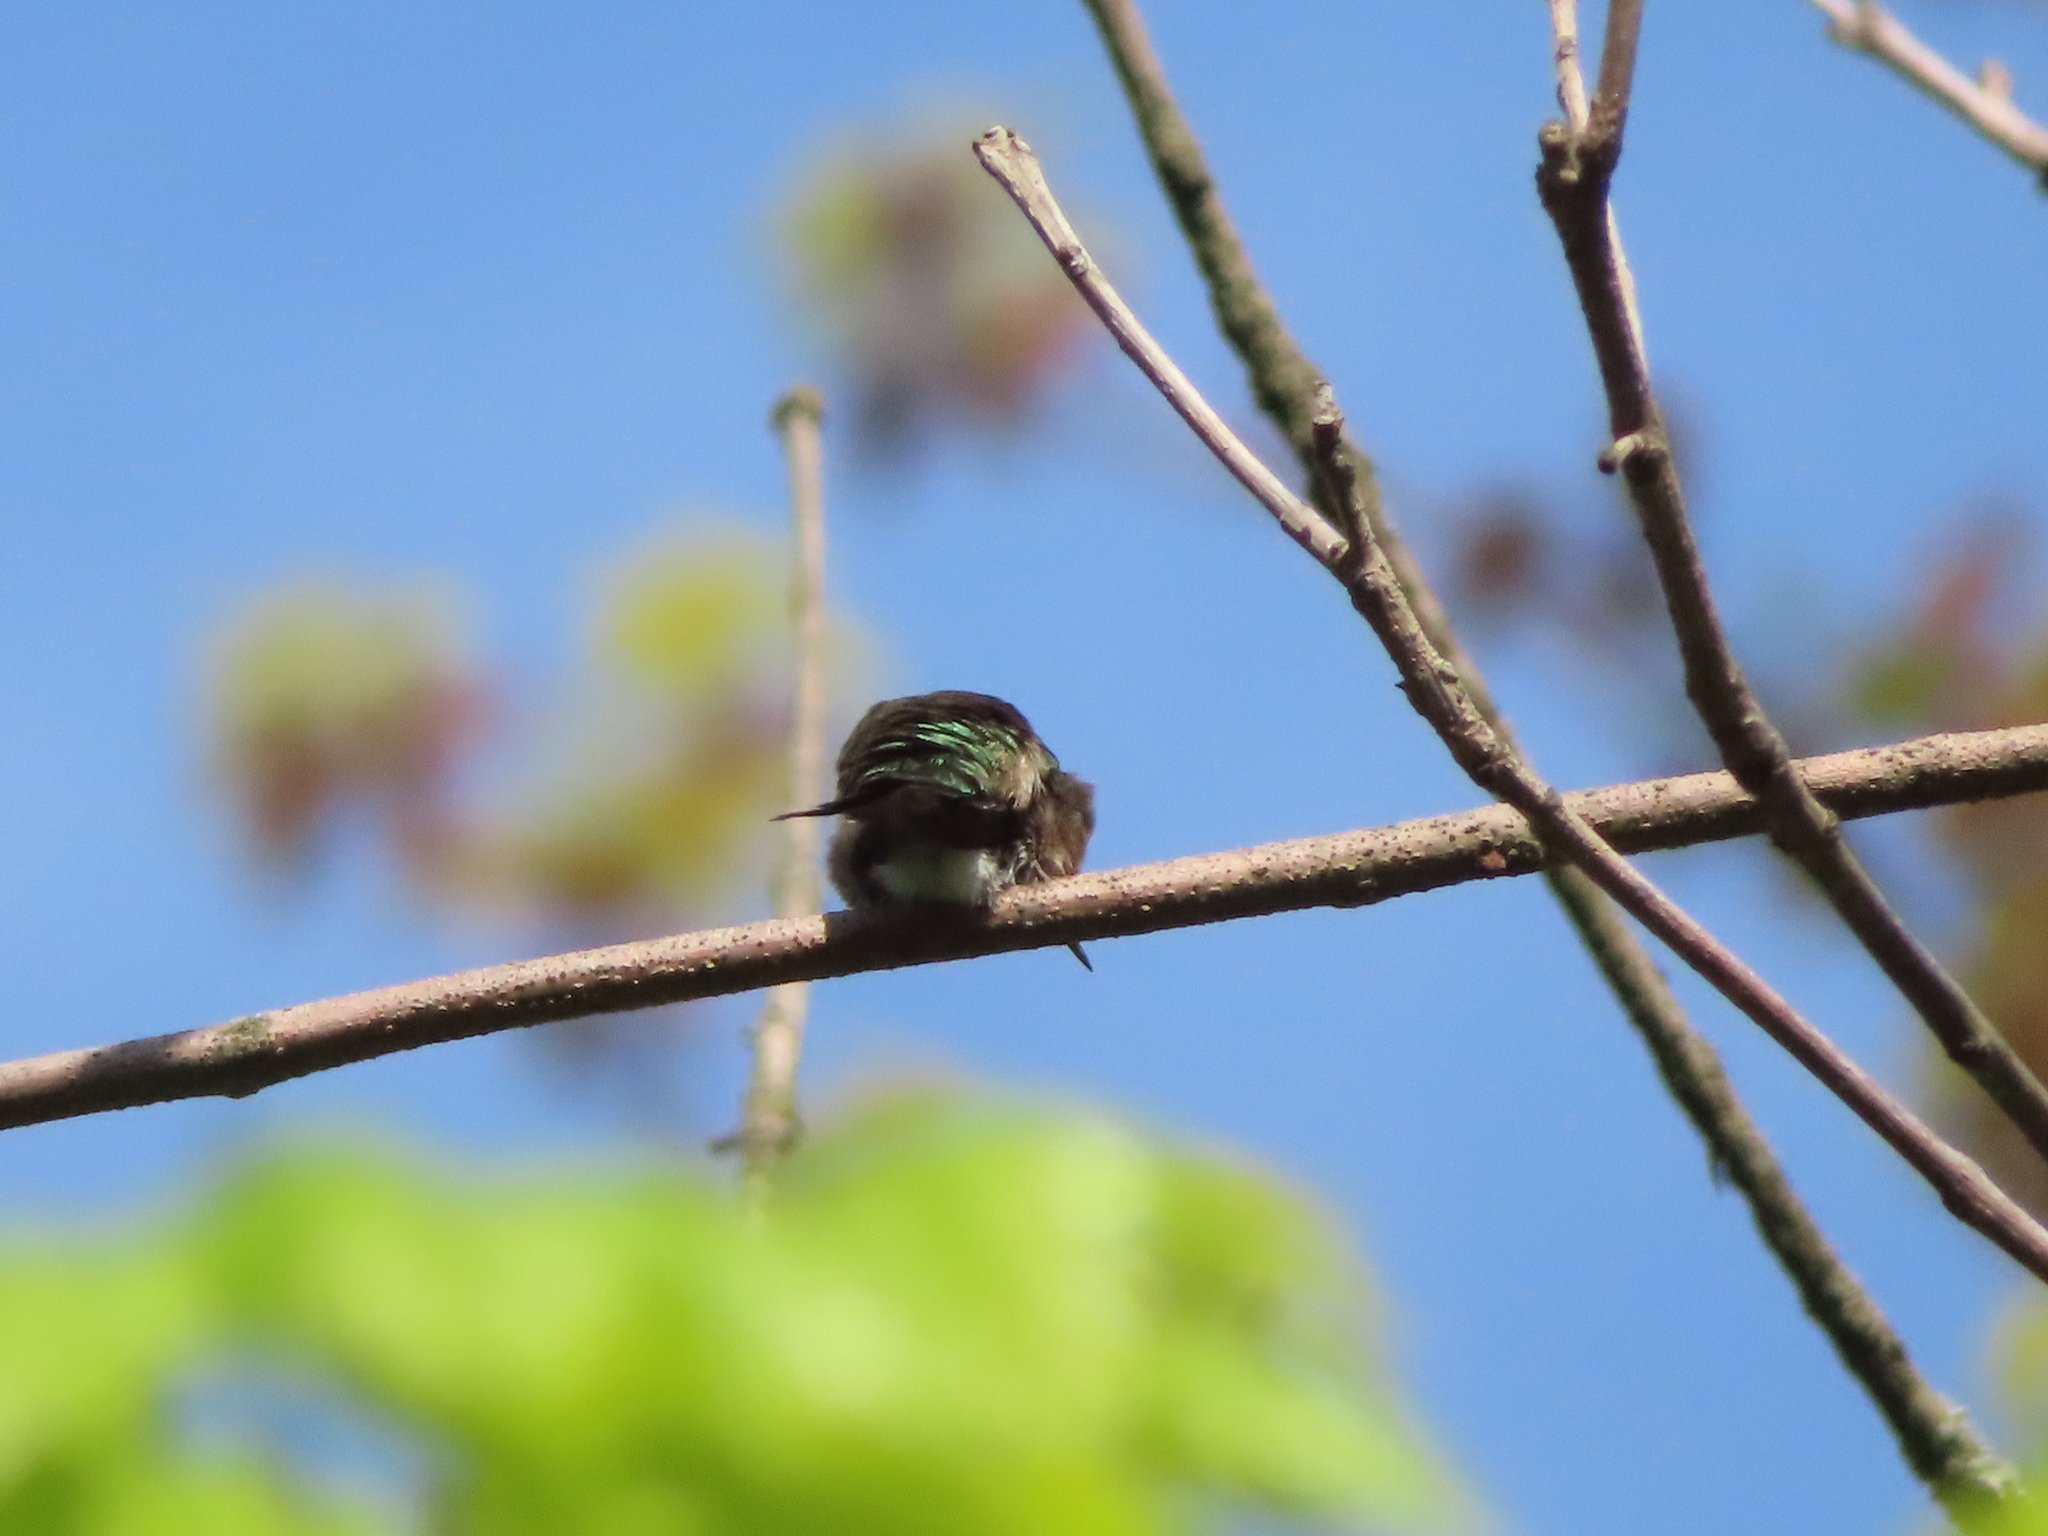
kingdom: Animalia
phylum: Chordata
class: Aves
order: Apodiformes
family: Trochilidae
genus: Archilochus
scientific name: Archilochus colubris
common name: Ruby-throated hummingbird
